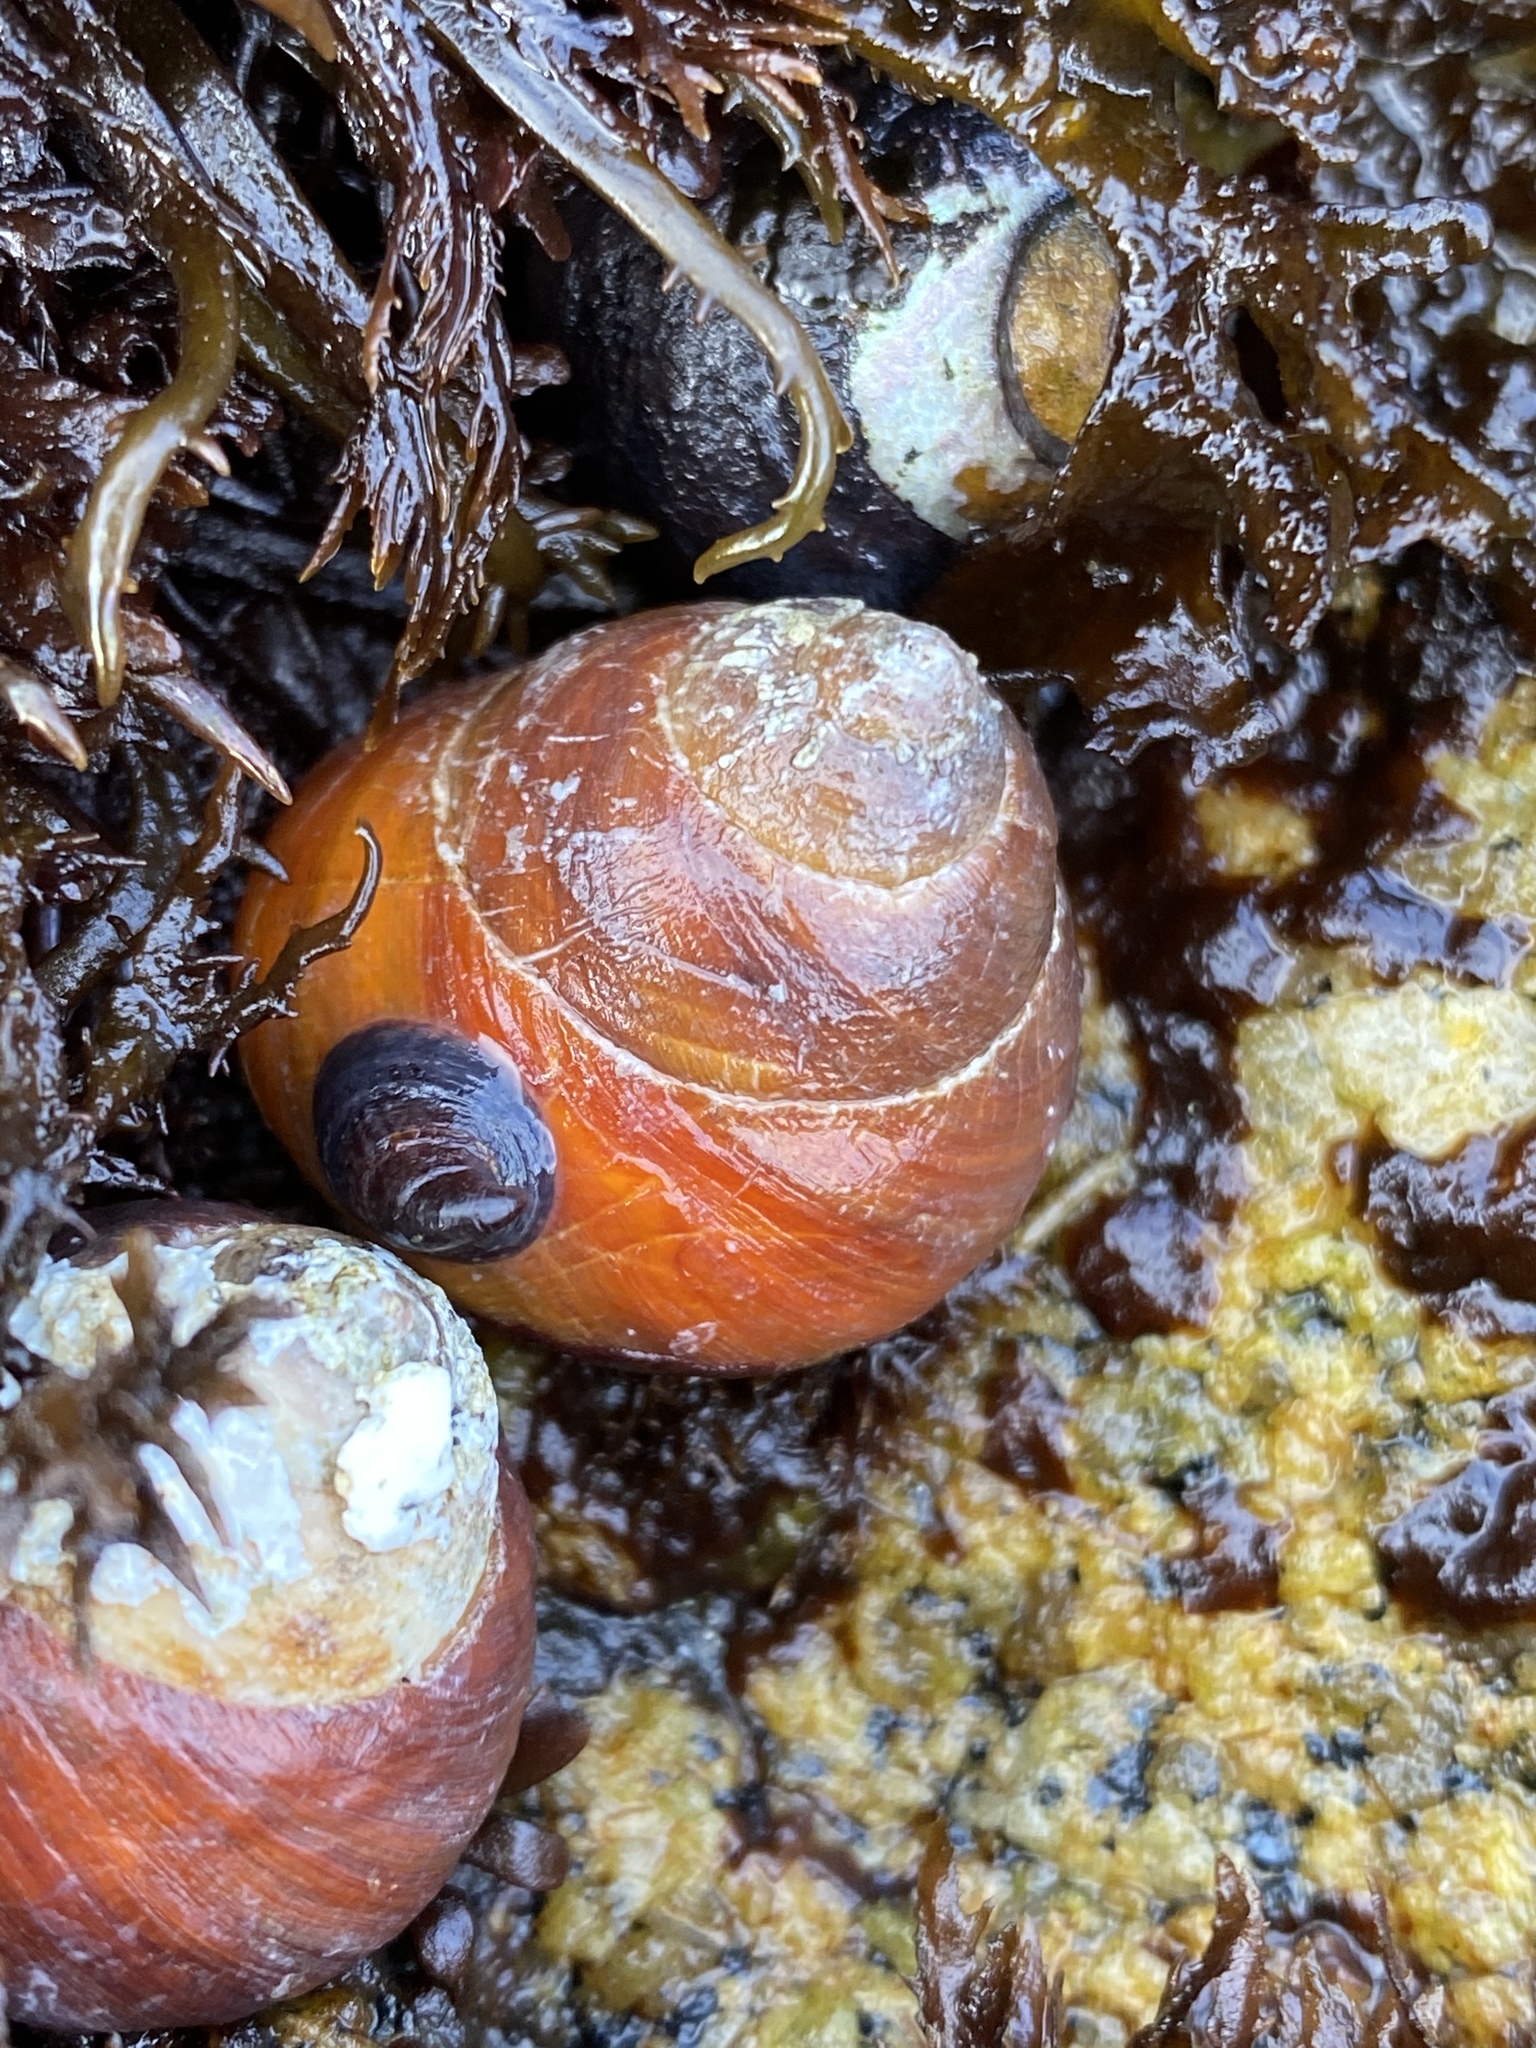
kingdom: Animalia
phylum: Mollusca
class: Gastropoda
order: Trochida
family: Tegulidae
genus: Tegula
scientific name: Tegula brunnea
